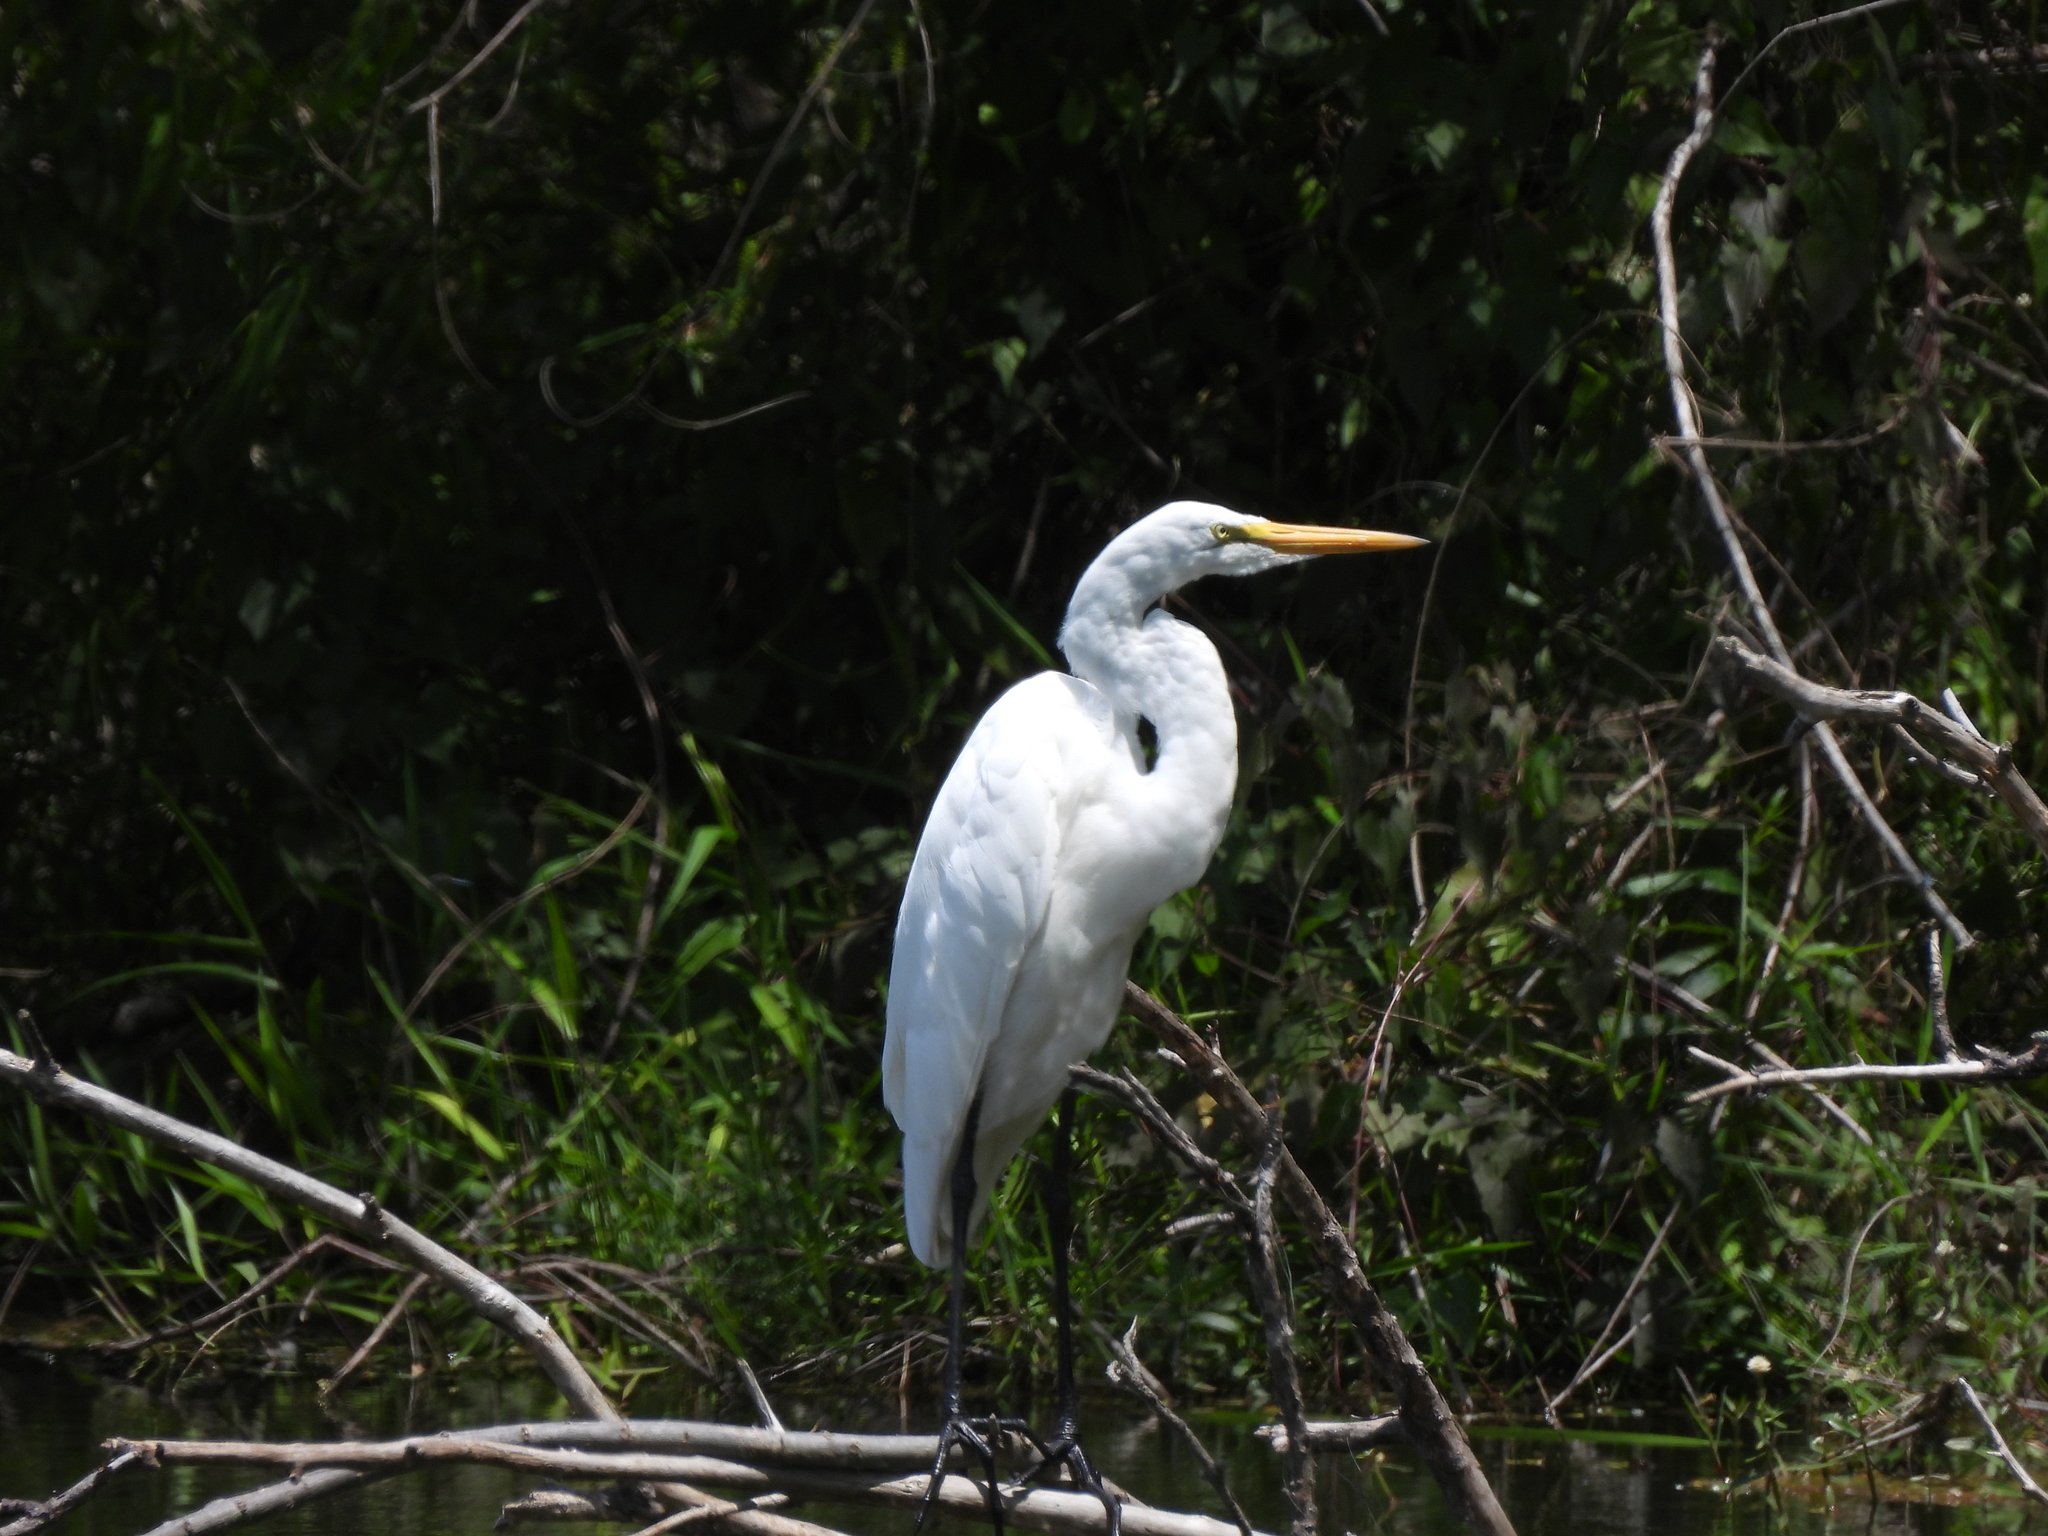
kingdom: Animalia
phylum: Chordata
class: Aves
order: Pelecaniformes
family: Ardeidae
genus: Ardea
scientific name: Ardea alba
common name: Great egret
